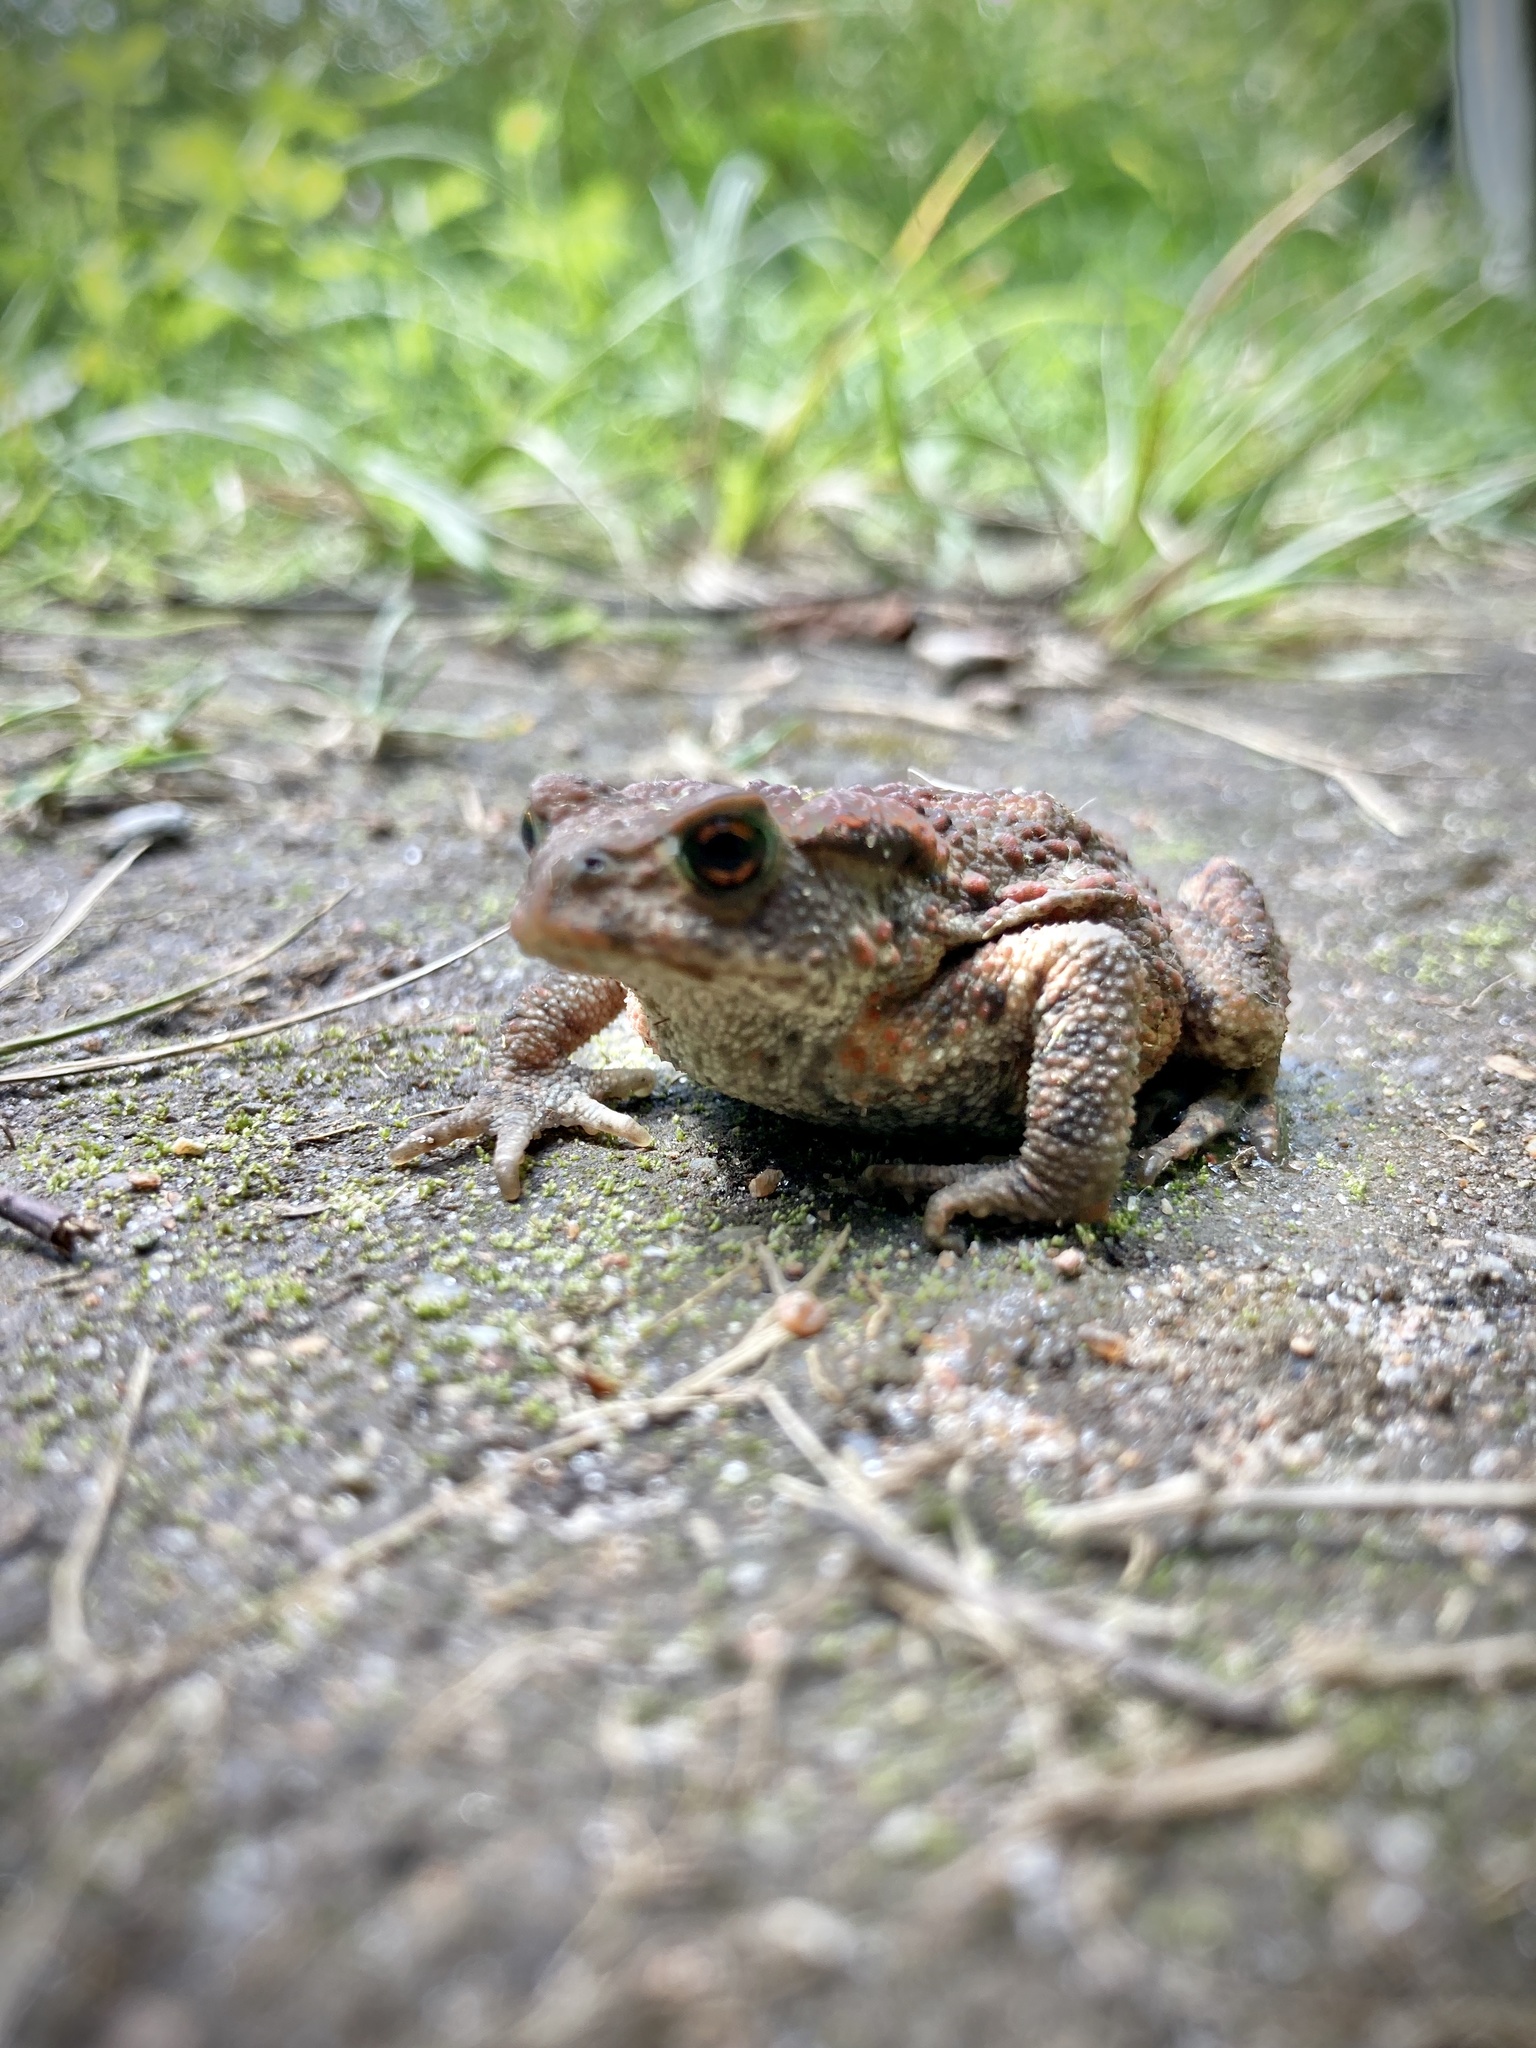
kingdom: Animalia
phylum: Chordata
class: Amphibia
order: Anura
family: Bufonidae
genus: Bufo
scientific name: Bufo bufo
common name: Common toad
